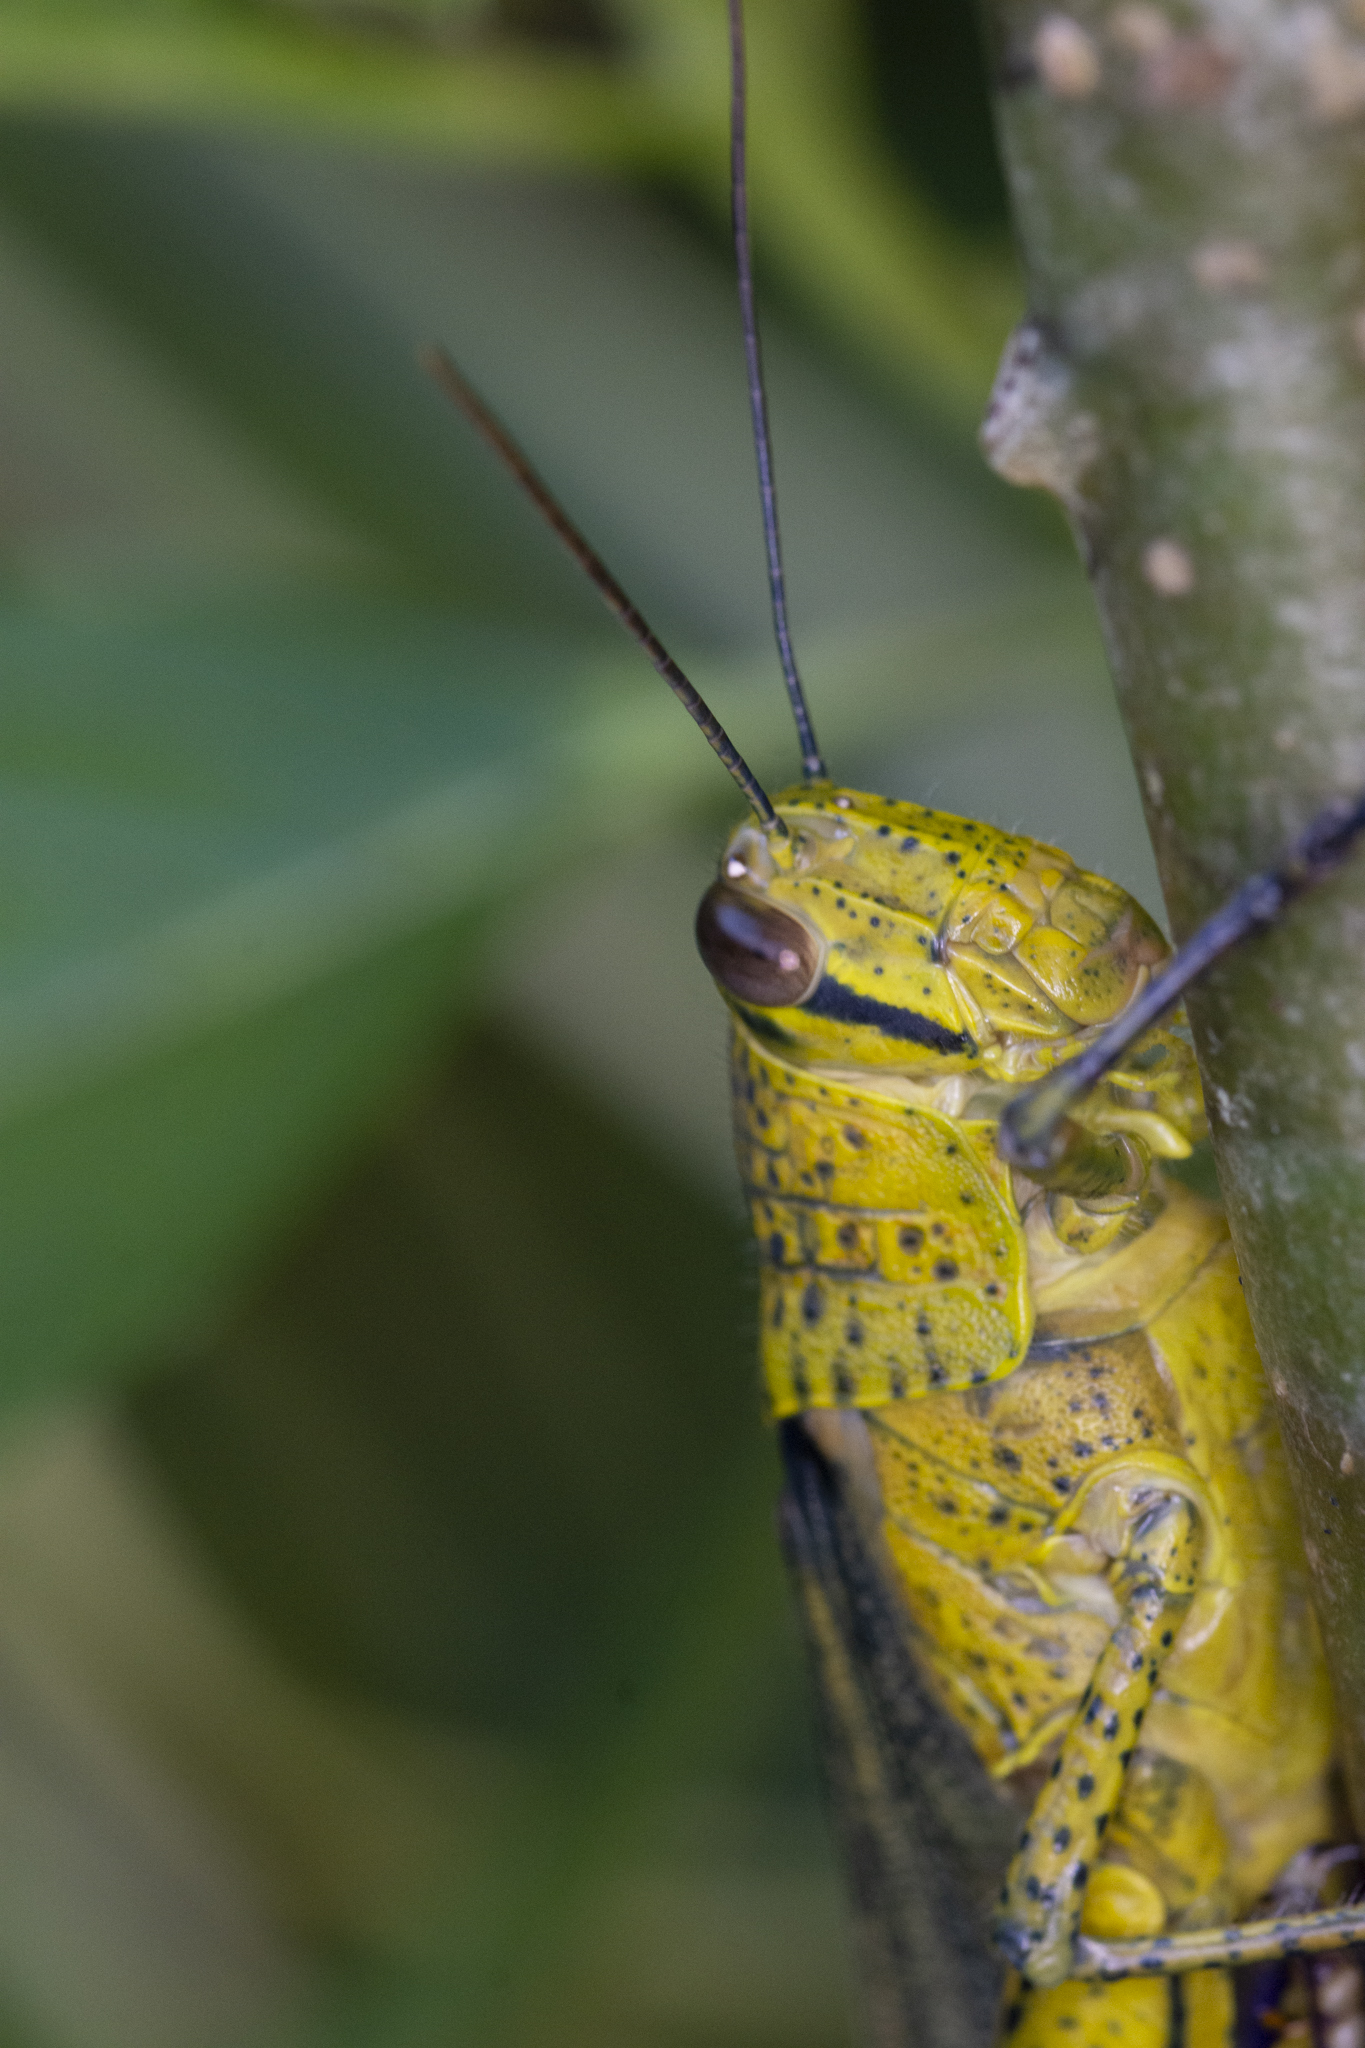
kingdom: Animalia
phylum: Arthropoda
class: Insecta
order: Orthoptera
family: Acrididae
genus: Valanga
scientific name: Valanga nigricornis
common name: Javanese bird grasshopper
